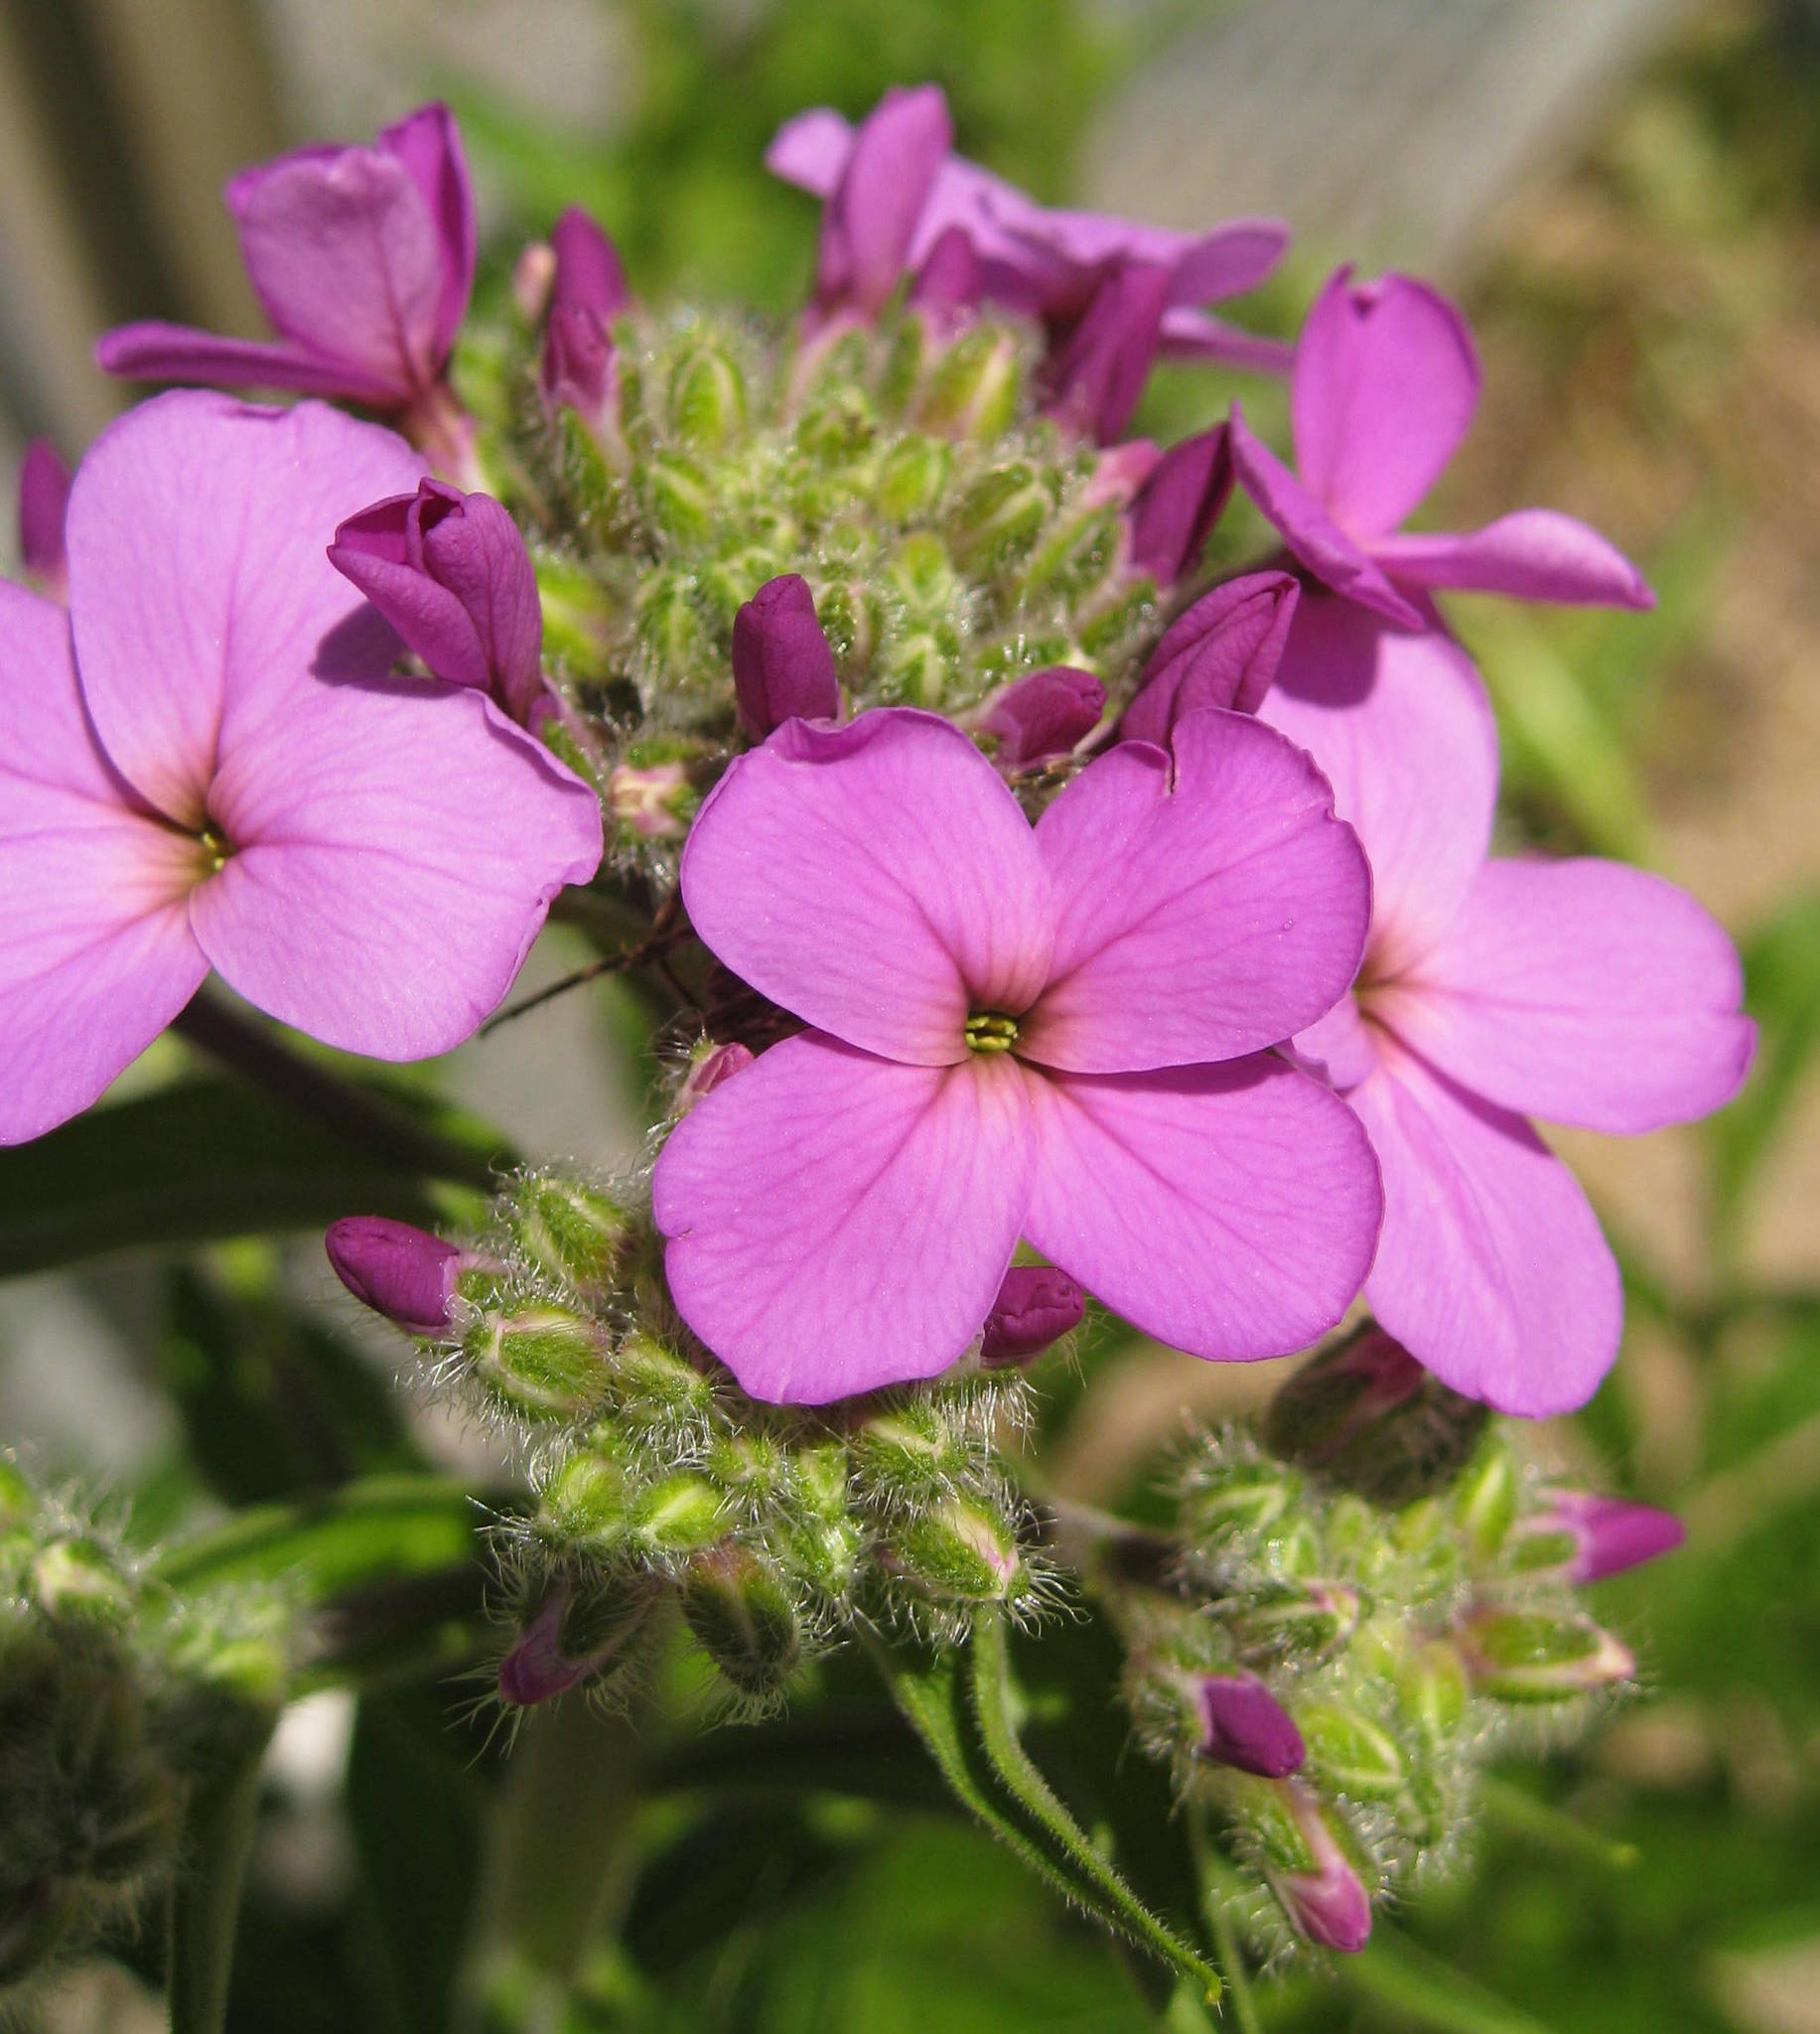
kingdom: Plantae
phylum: Tracheophyta
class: Magnoliopsida
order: Brassicales
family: Brassicaceae
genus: Hesperis
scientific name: Hesperis matronalis
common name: Dame's-violet
